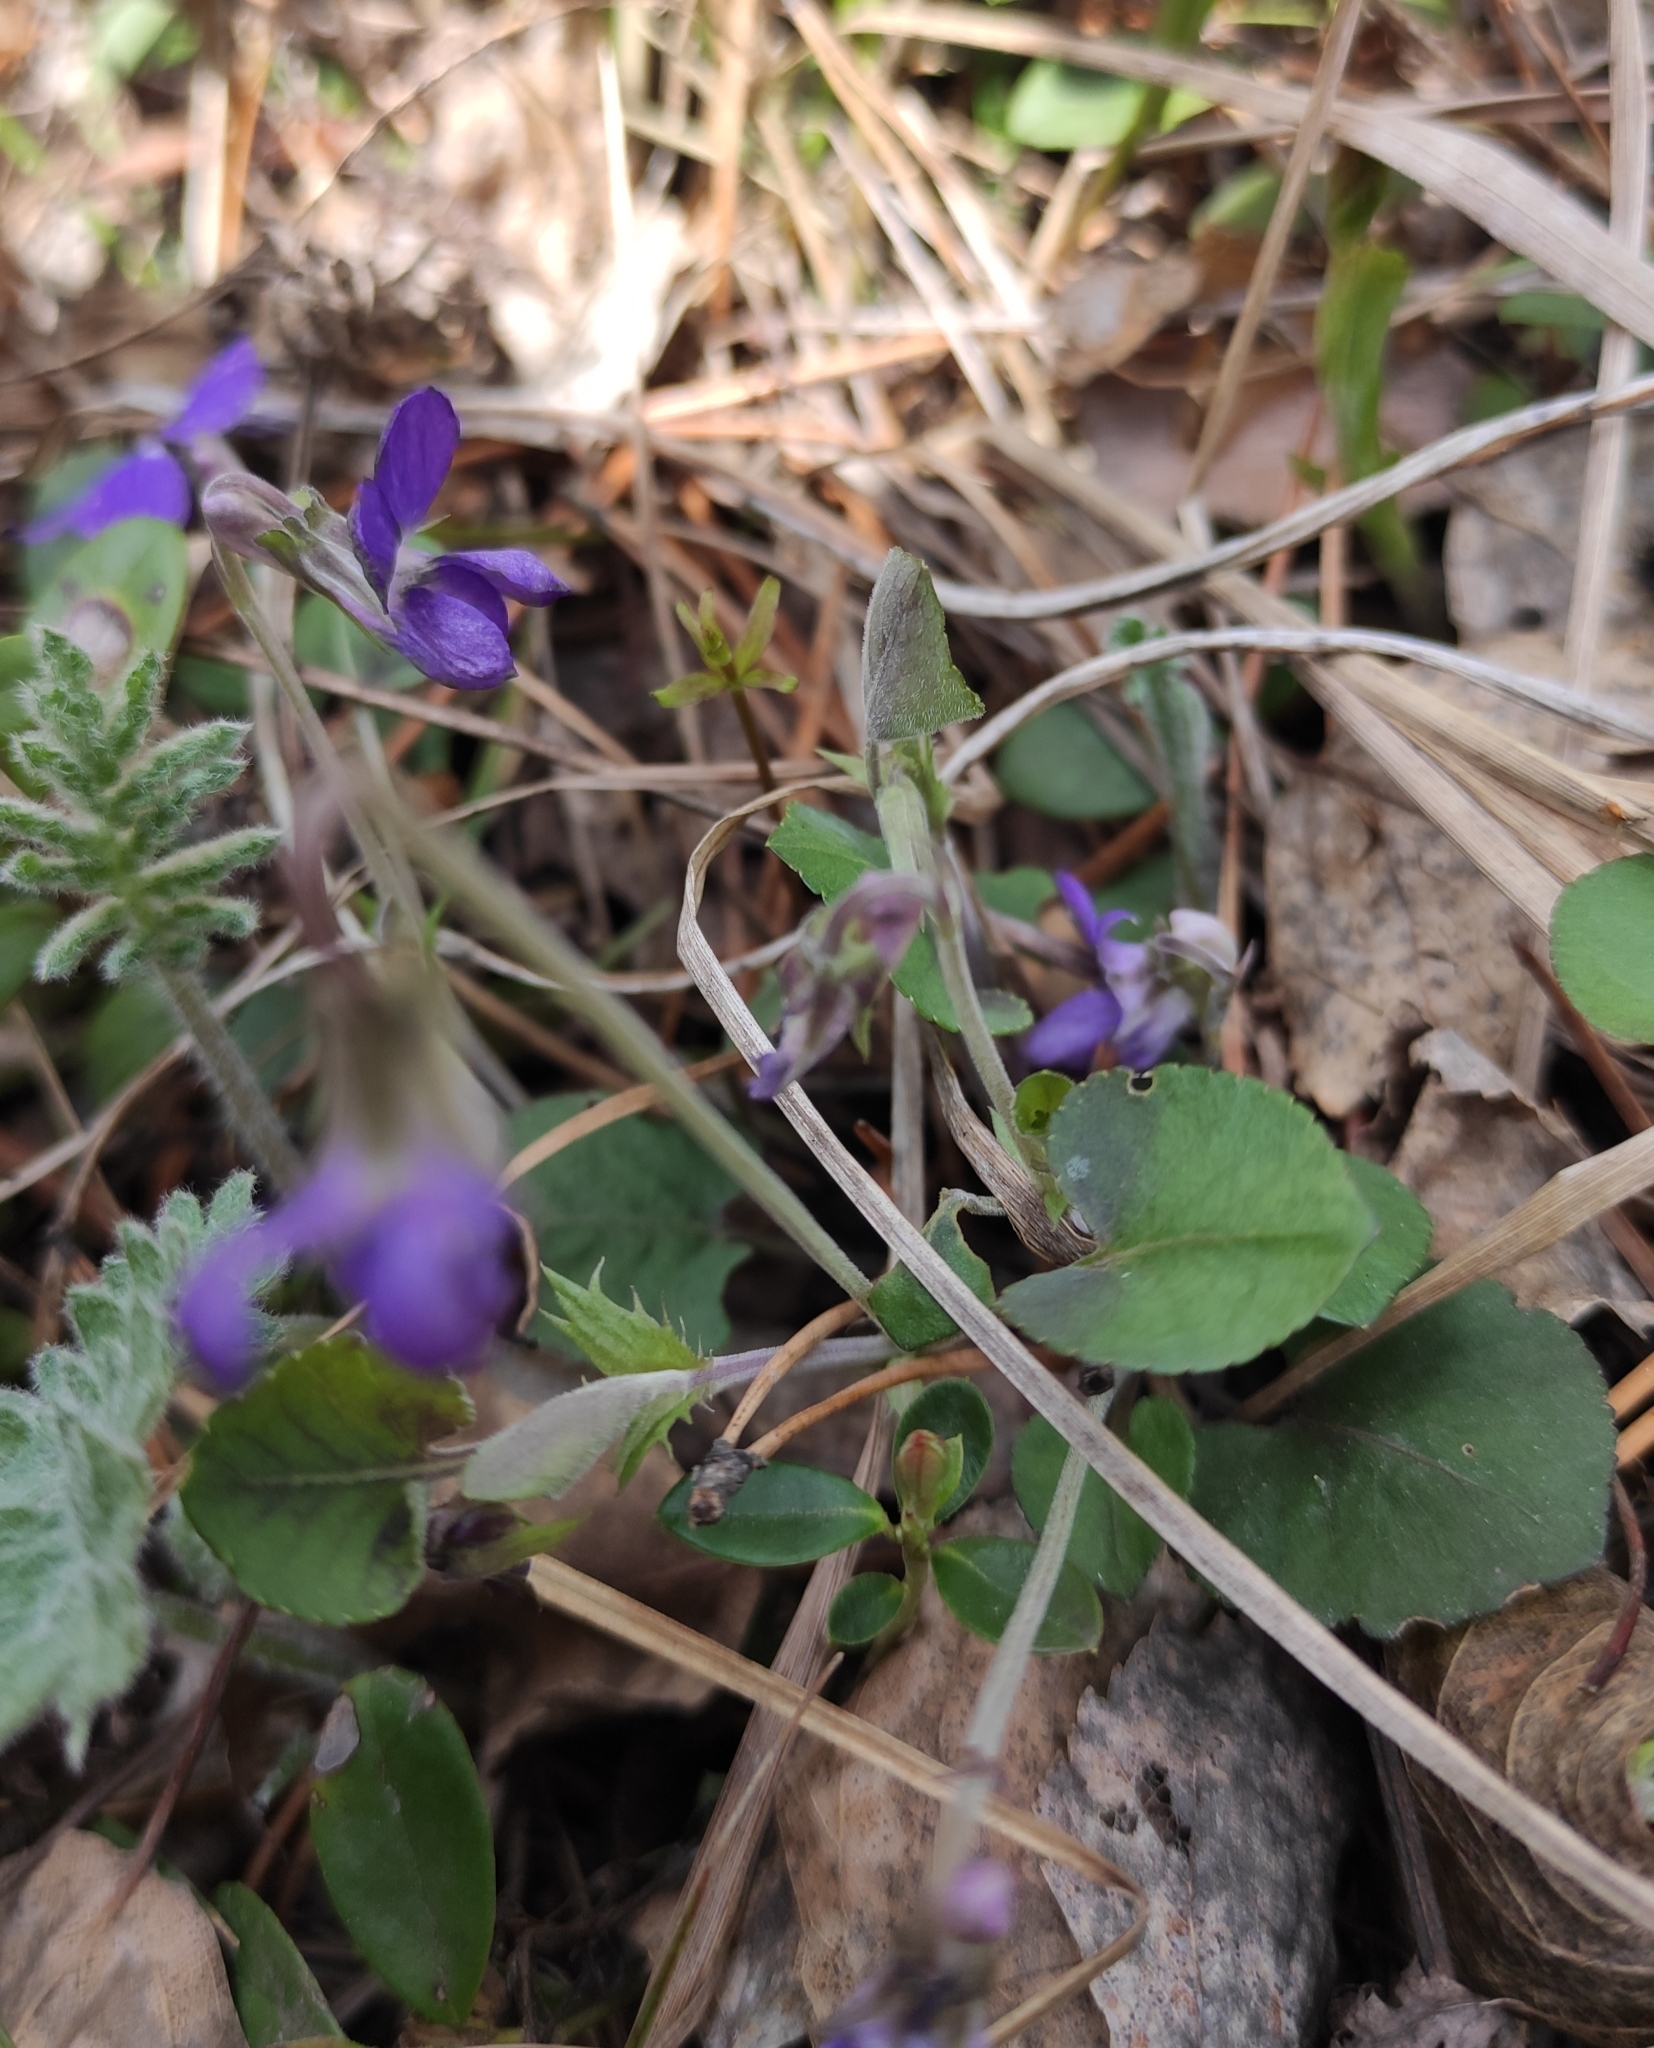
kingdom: Plantae
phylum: Tracheophyta
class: Magnoliopsida
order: Malpighiales
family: Violaceae
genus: Viola
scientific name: Viola rupestris
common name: Teesdale violet
